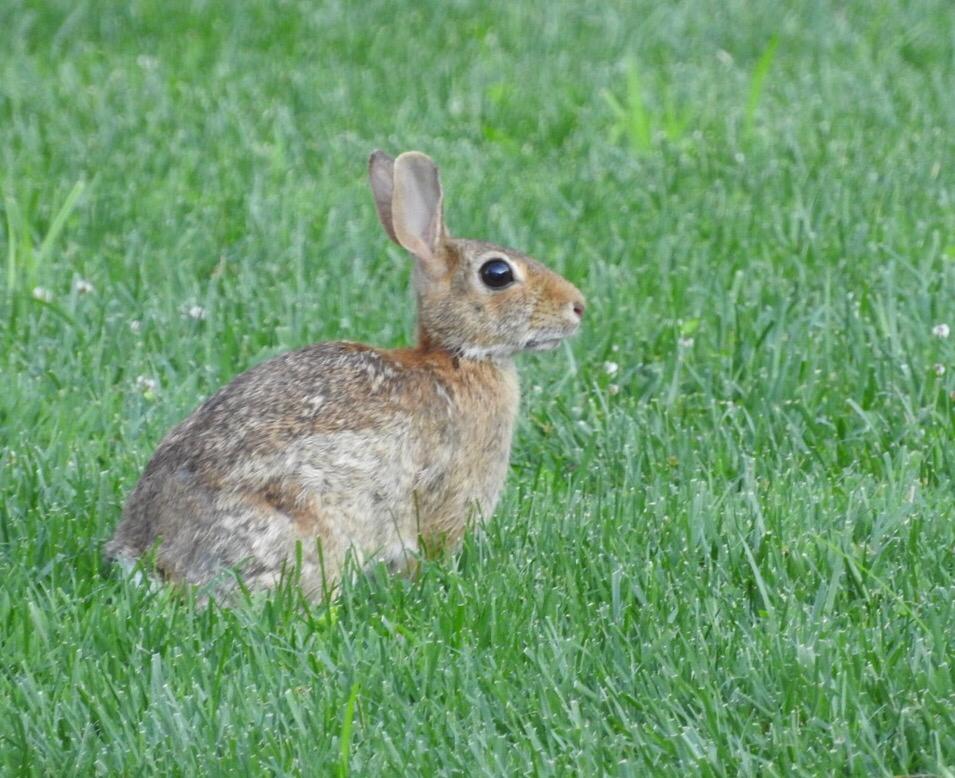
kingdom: Animalia
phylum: Chordata
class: Mammalia
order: Lagomorpha
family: Leporidae
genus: Sylvilagus
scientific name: Sylvilagus floridanus
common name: Eastern cottontail
